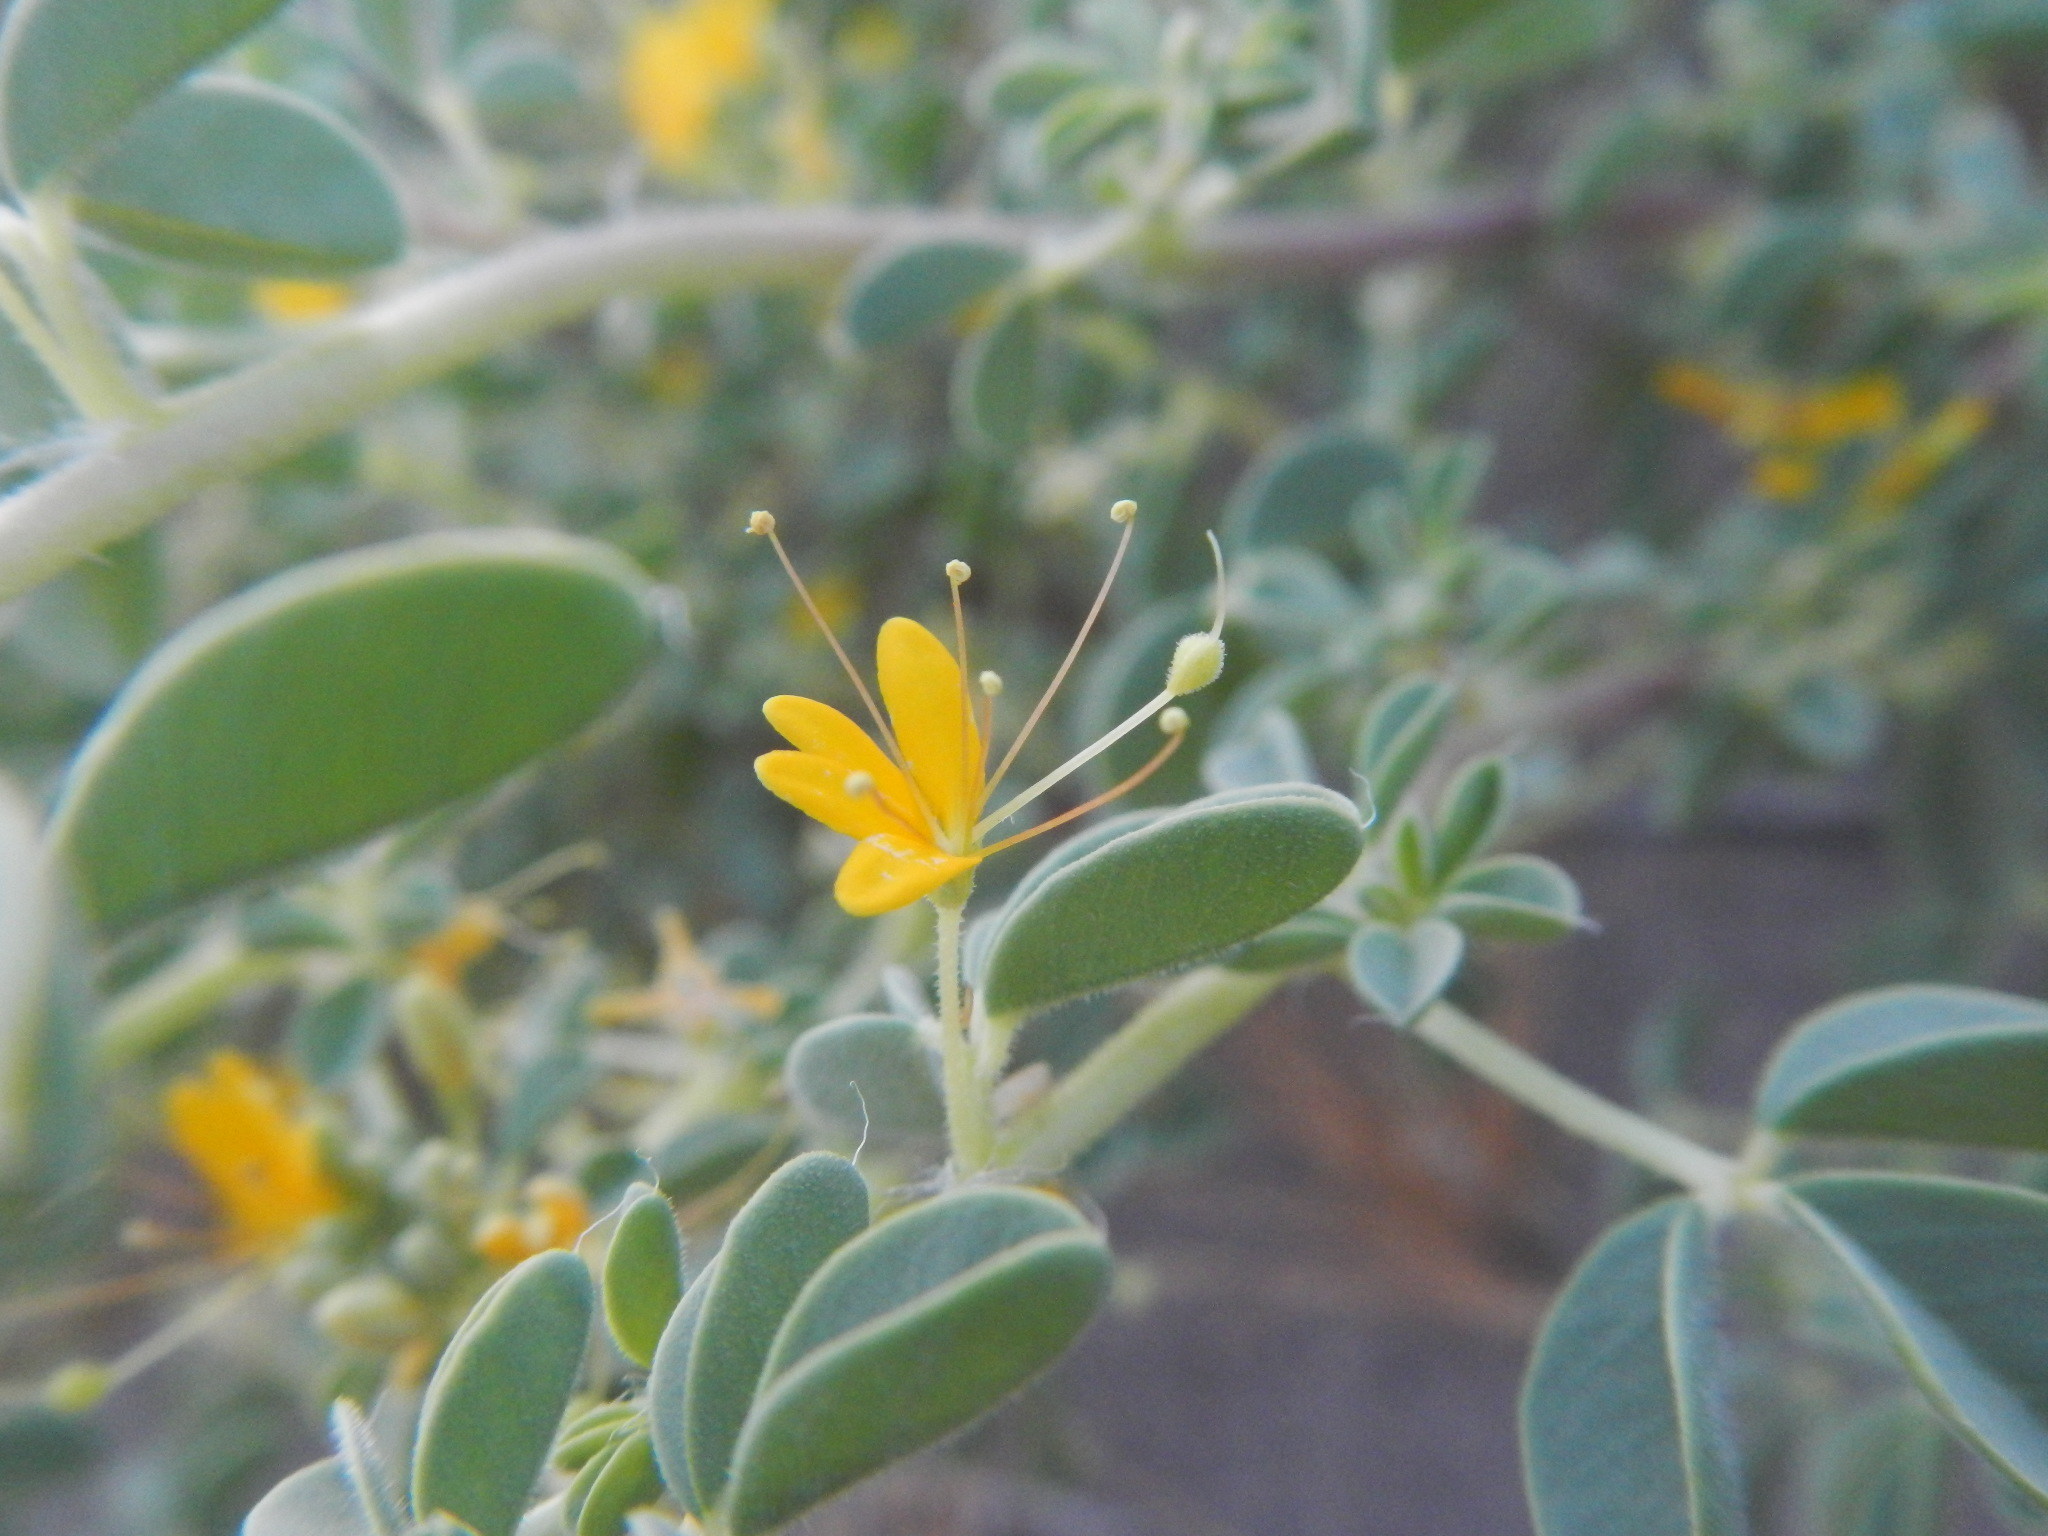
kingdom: Plantae
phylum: Tracheophyta
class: Magnoliopsida
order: Brassicales
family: Cleomaceae
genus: Cleomella
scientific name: Cleomella obtusifolia
